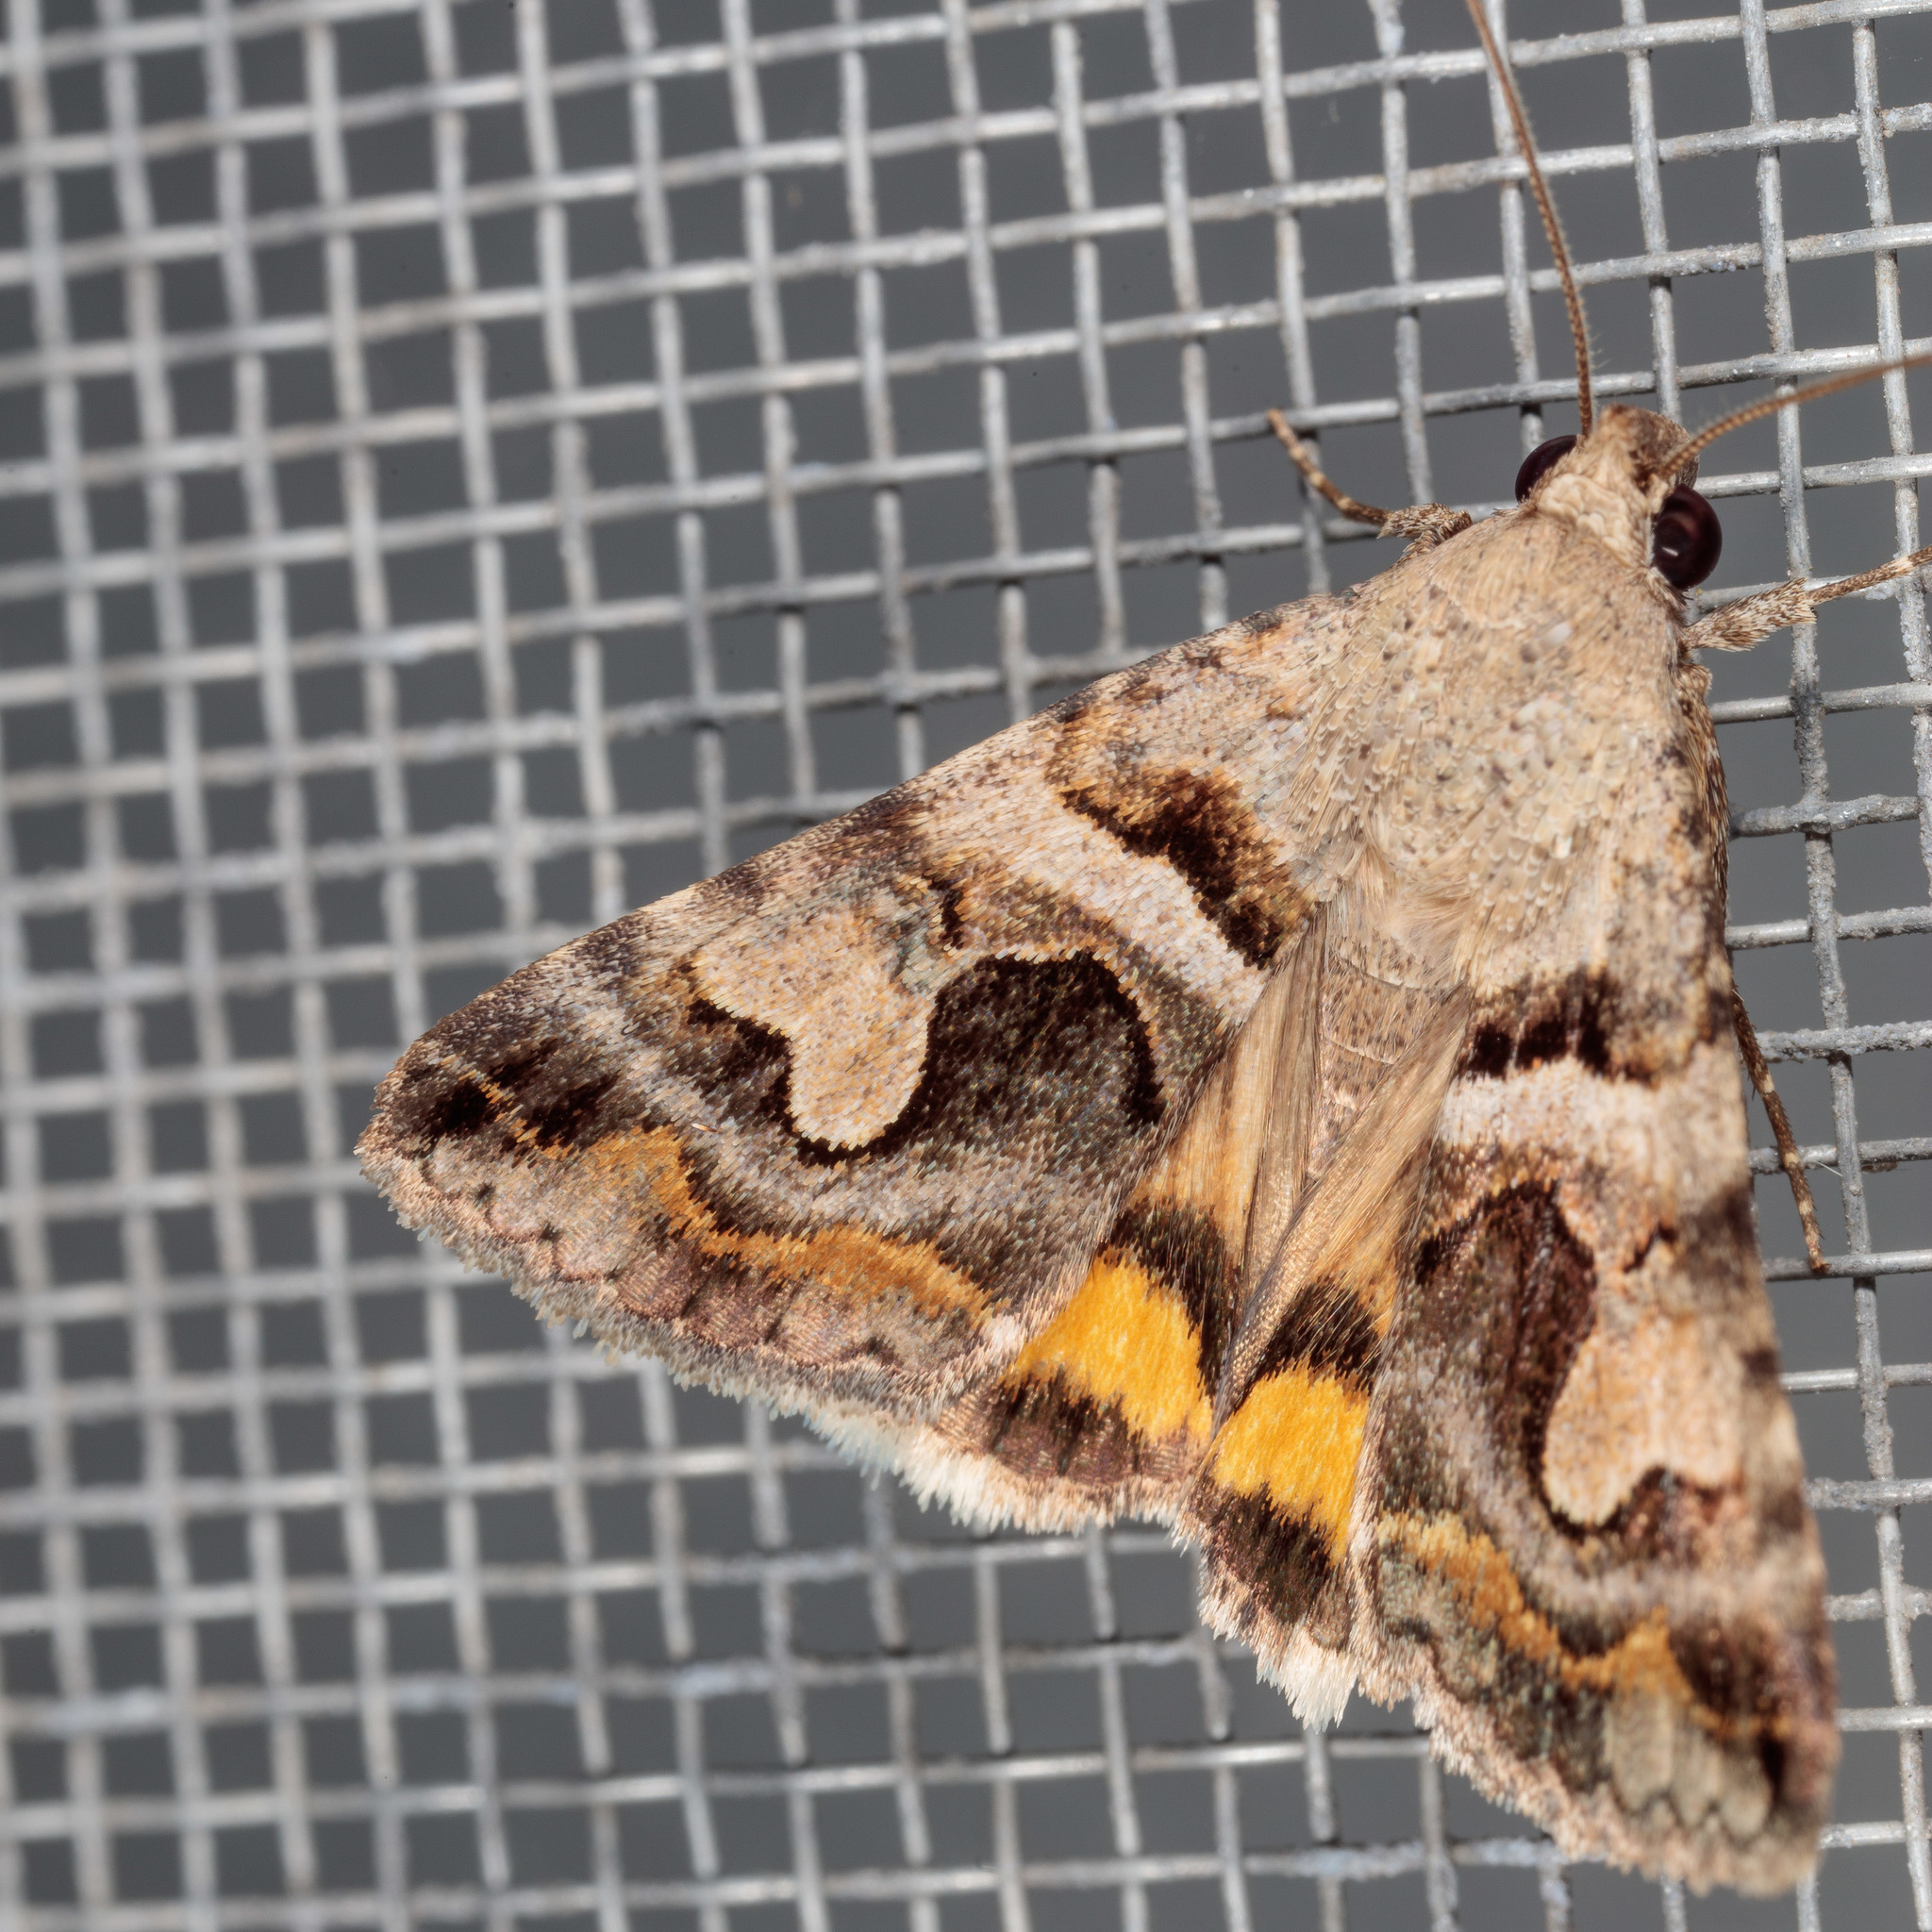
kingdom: Animalia
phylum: Arthropoda
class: Insecta
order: Lepidoptera
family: Erebidae
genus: Bulia
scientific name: Bulia
